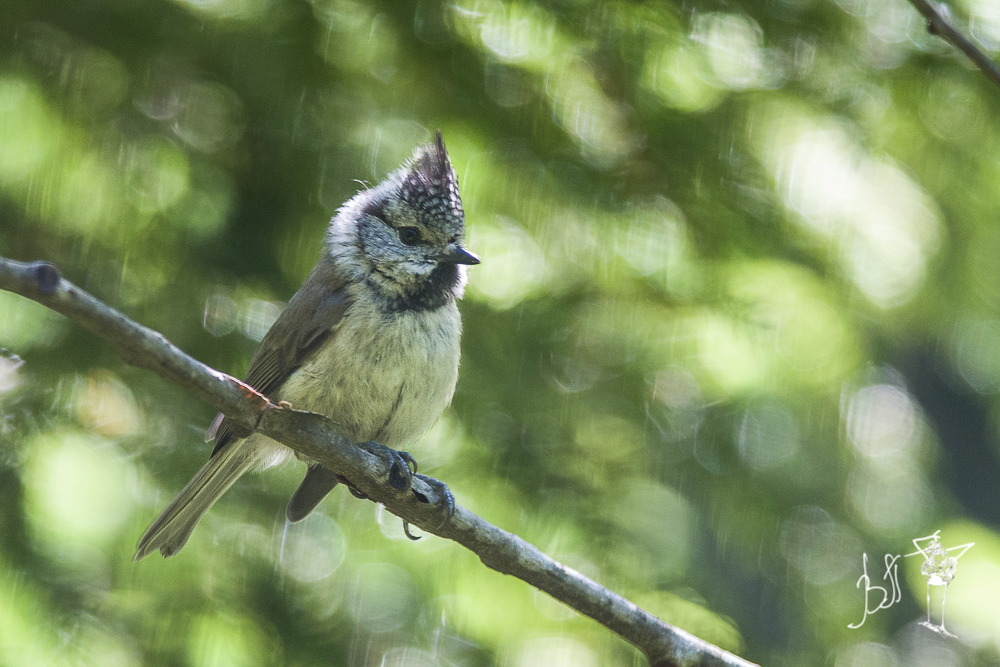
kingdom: Animalia
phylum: Chordata
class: Aves
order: Passeriformes
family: Paridae
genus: Lophophanes
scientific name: Lophophanes cristatus
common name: European crested tit
